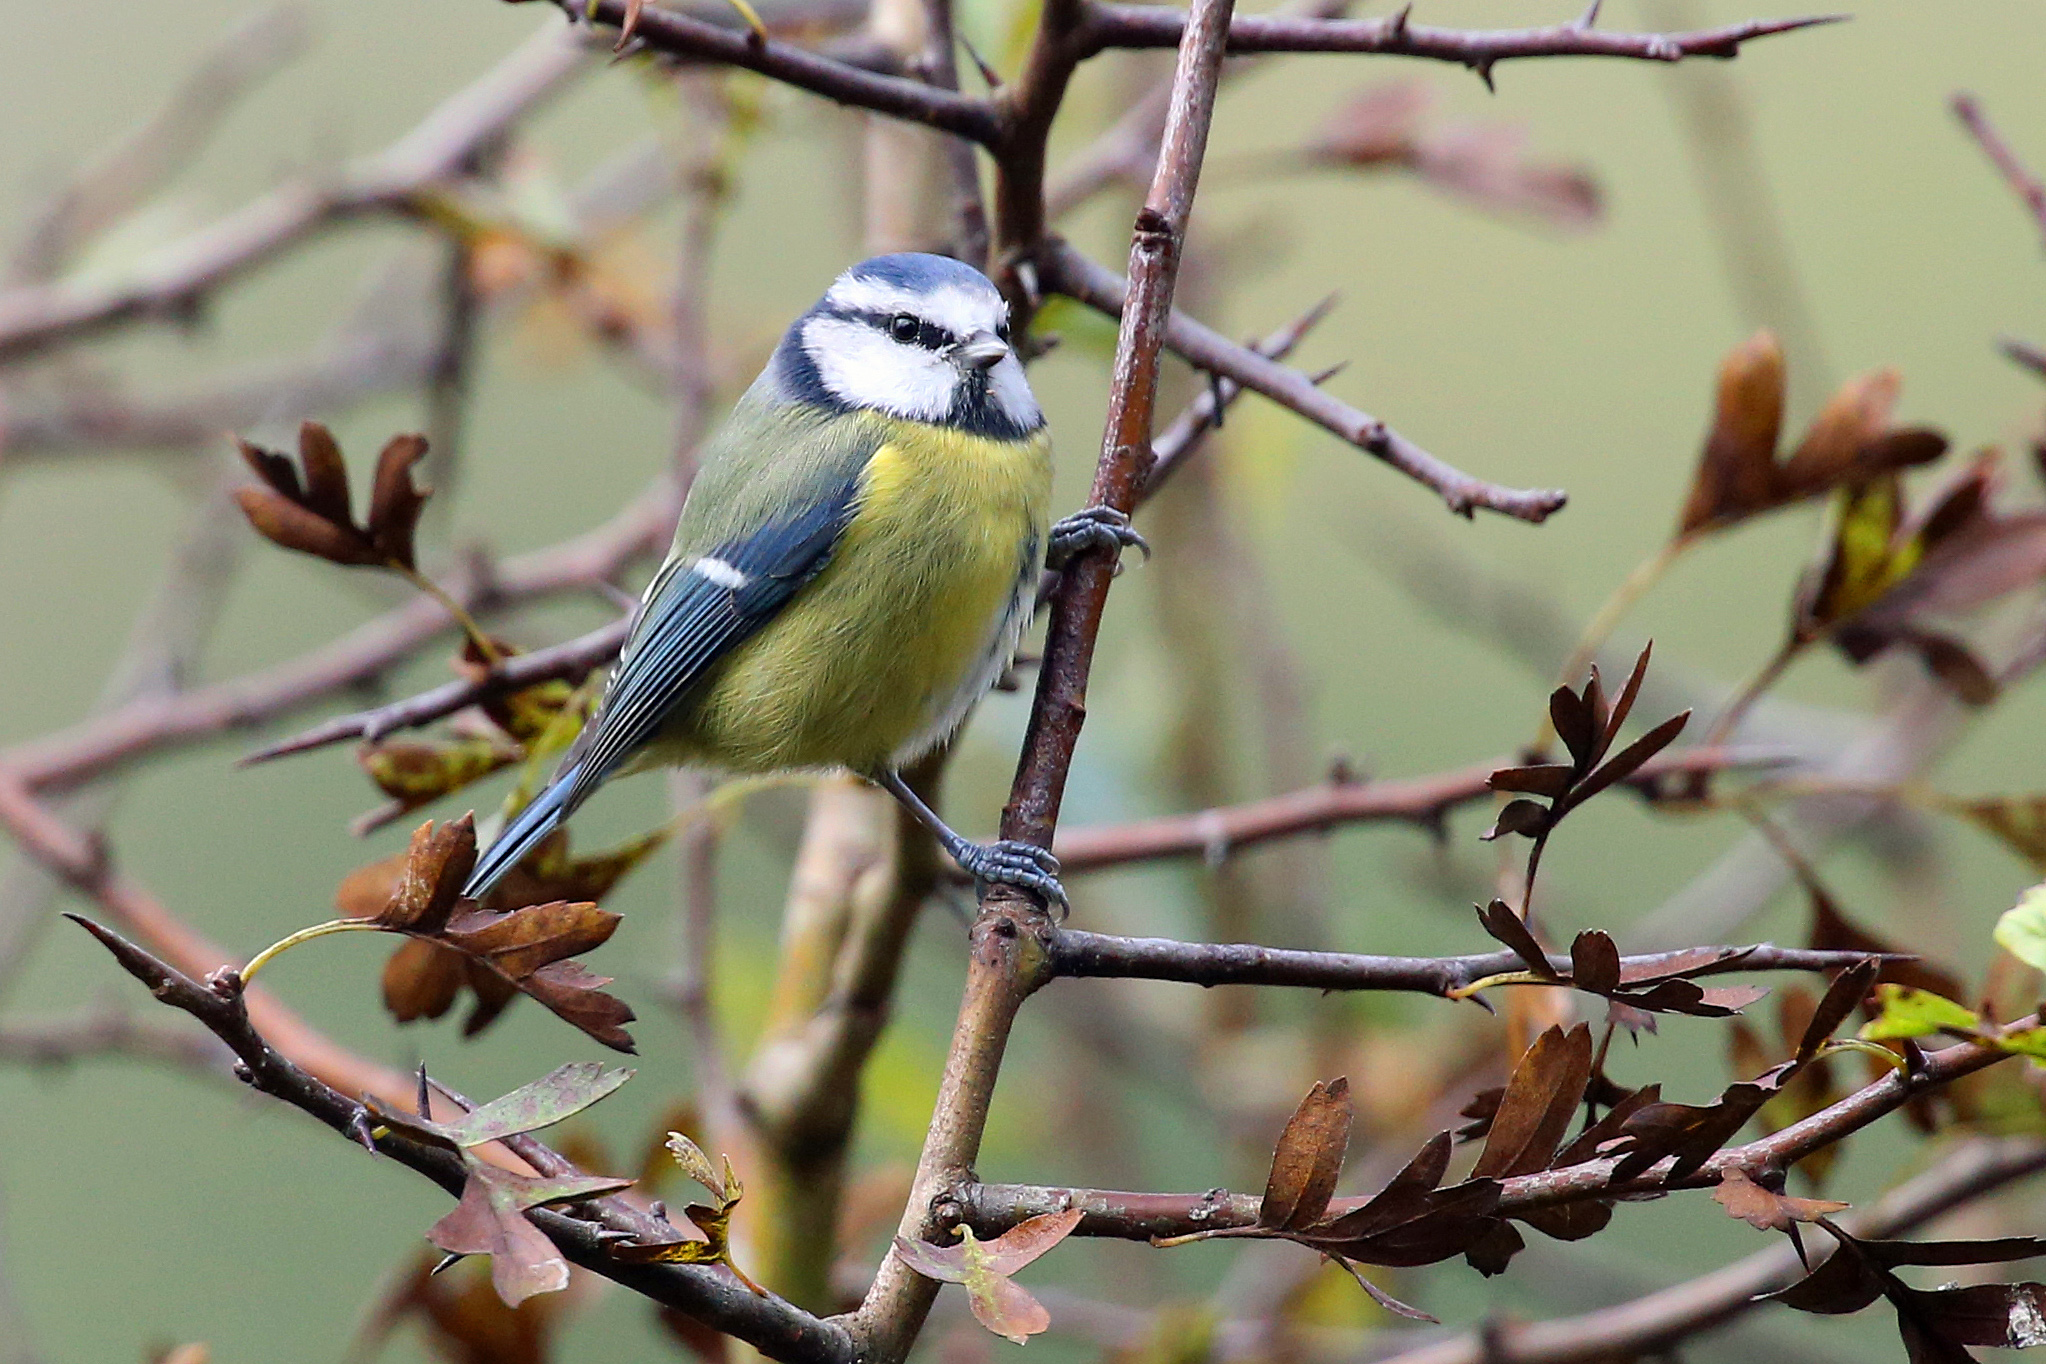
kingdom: Animalia
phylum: Chordata
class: Aves
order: Passeriformes
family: Paridae
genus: Cyanistes
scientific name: Cyanistes caeruleus
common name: Eurasian blue tit
